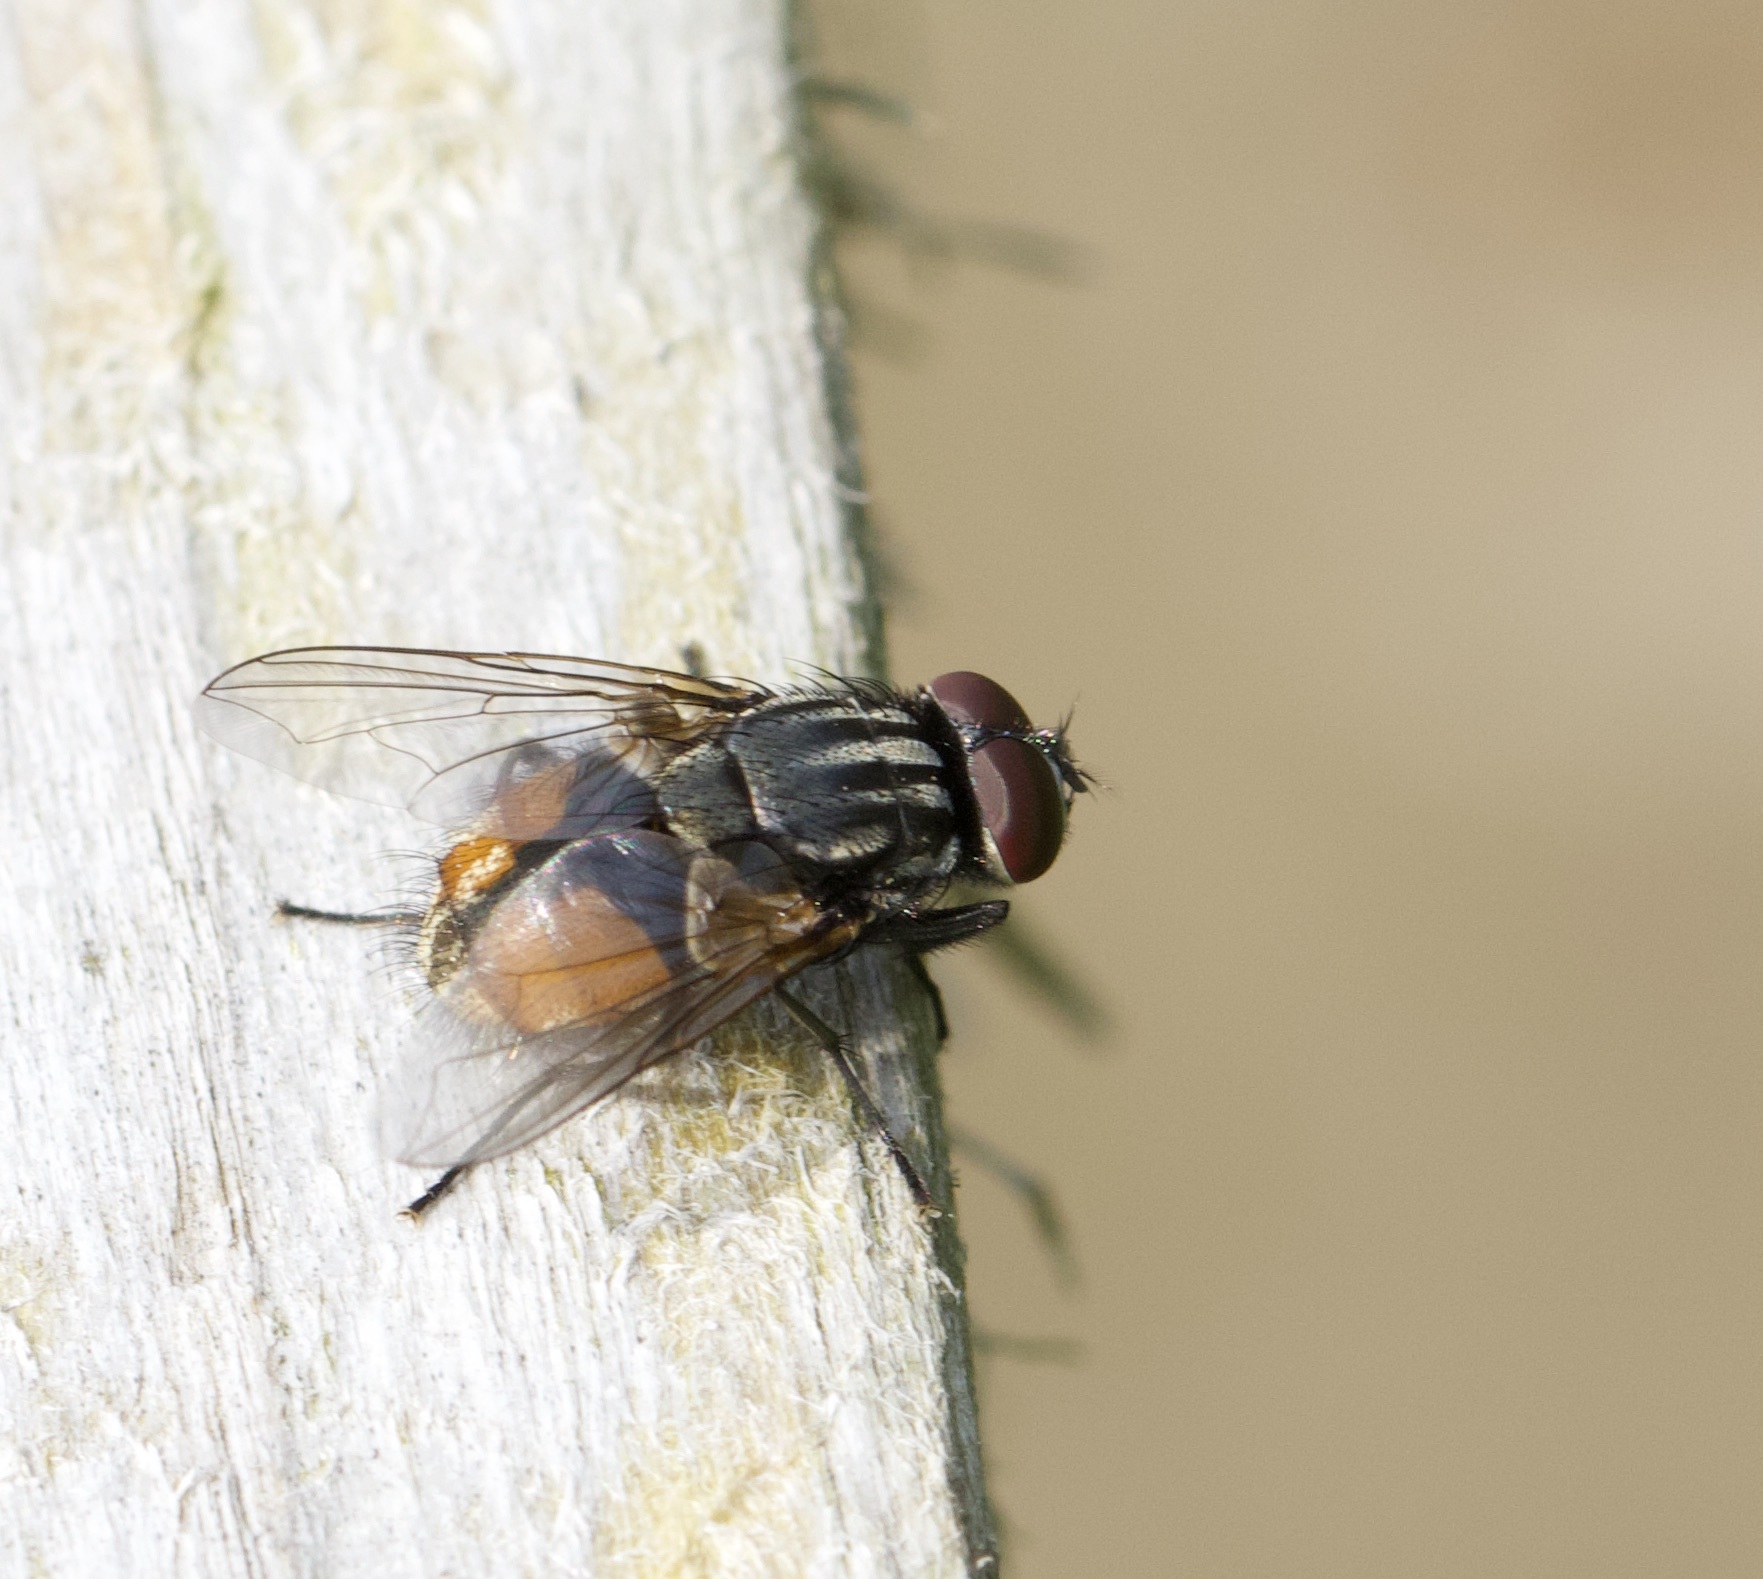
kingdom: Animalia
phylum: Arthropoda
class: Insecta
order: Diptera
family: Muscidae
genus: Musca
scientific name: Musca autumnalis
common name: Face fly
